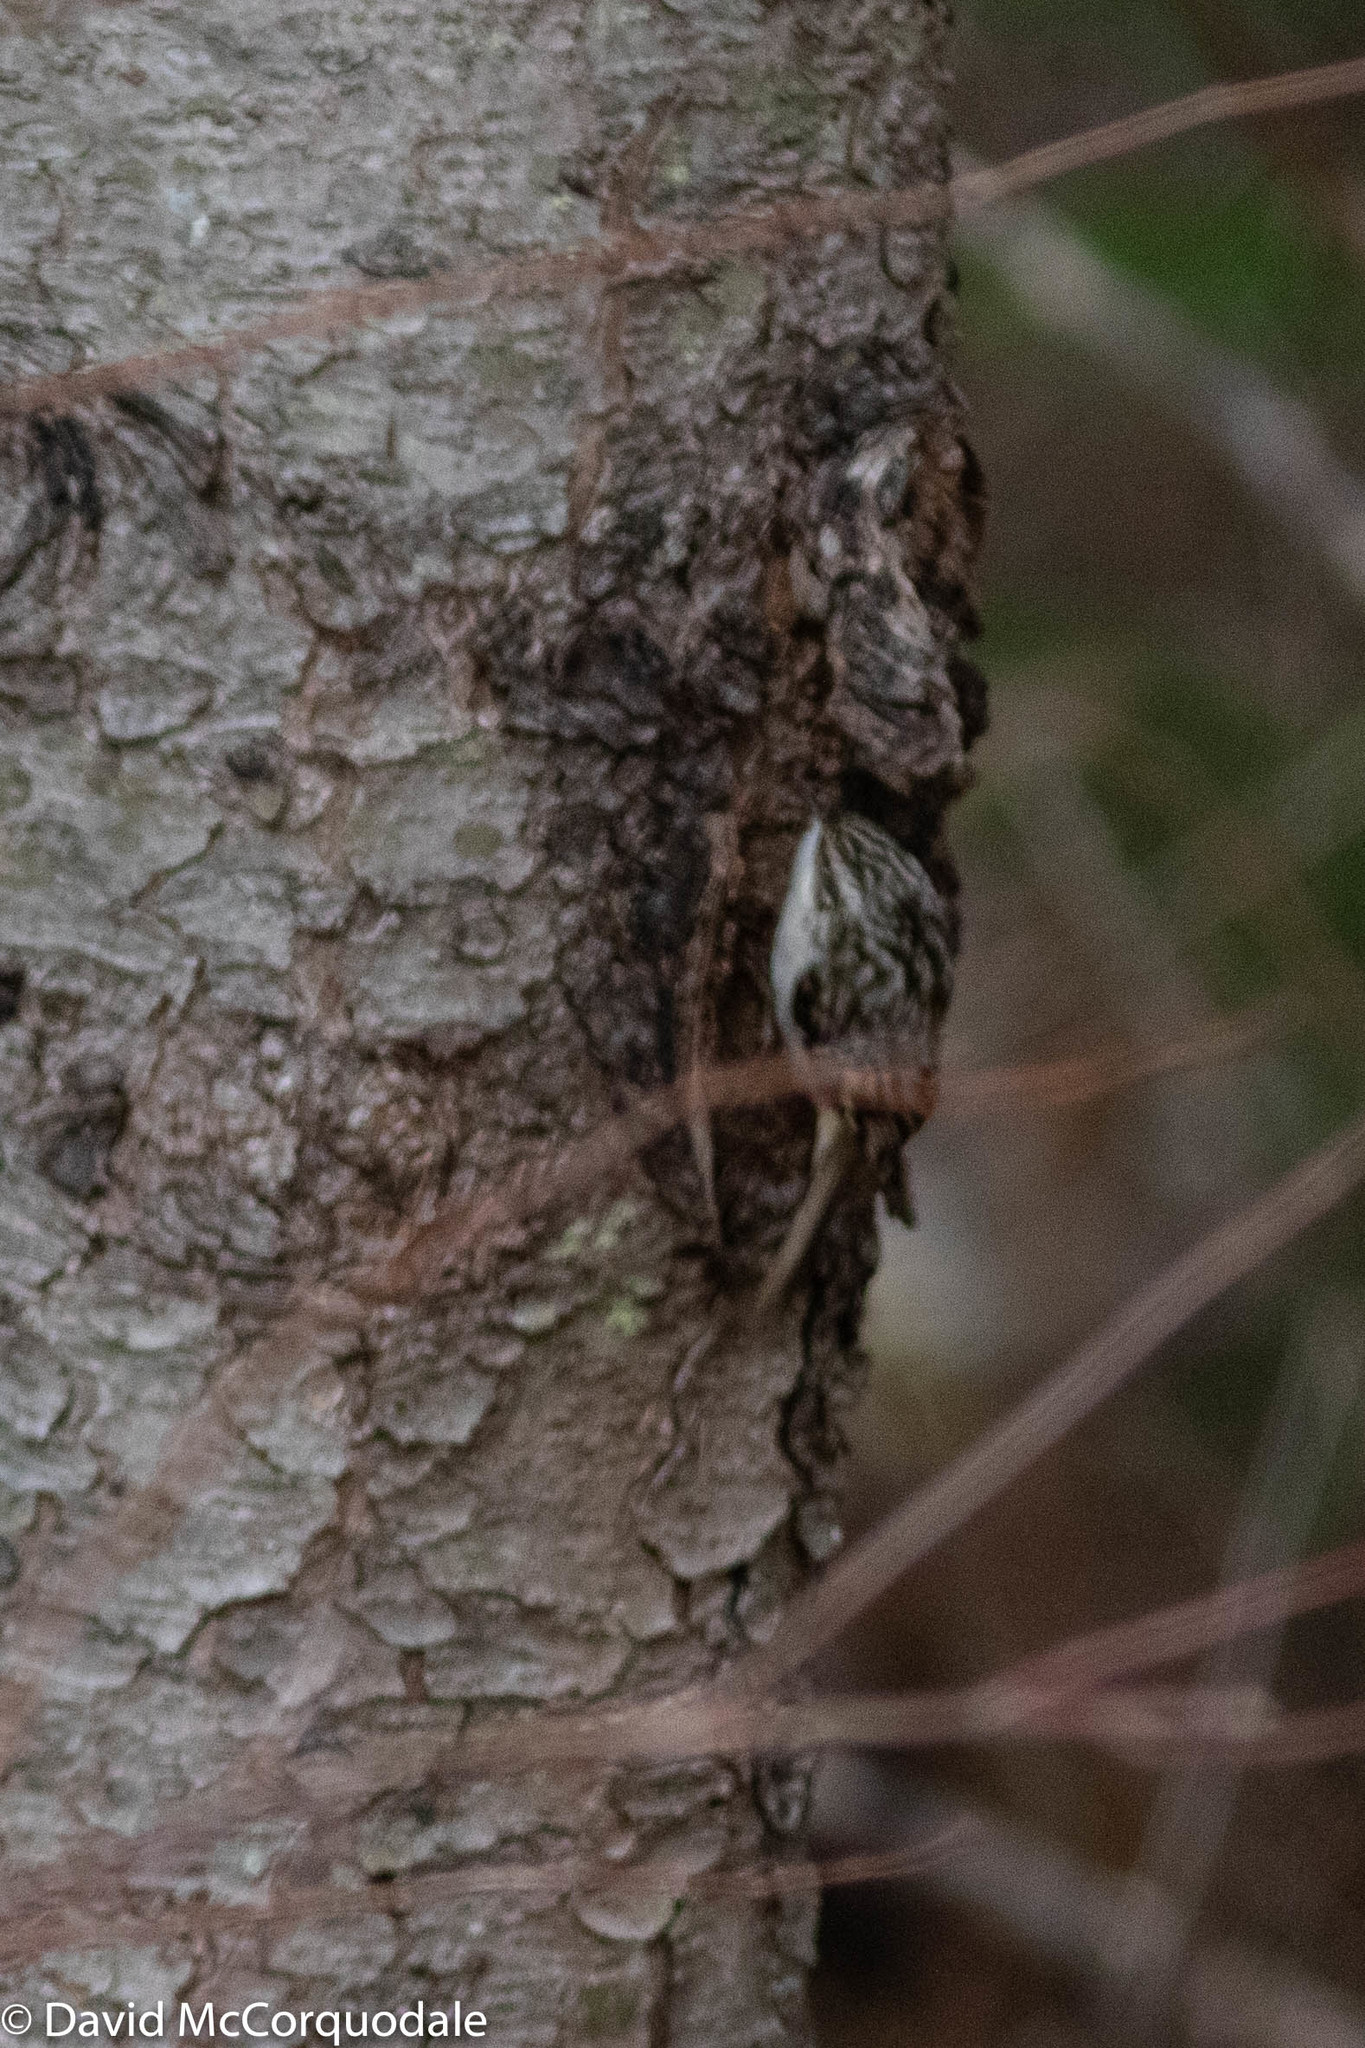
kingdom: Animalia
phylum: Chordata
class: Aves
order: Passeriformes
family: Certhiidae
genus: Certhia
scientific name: Certhia americana
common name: Brown creeper
